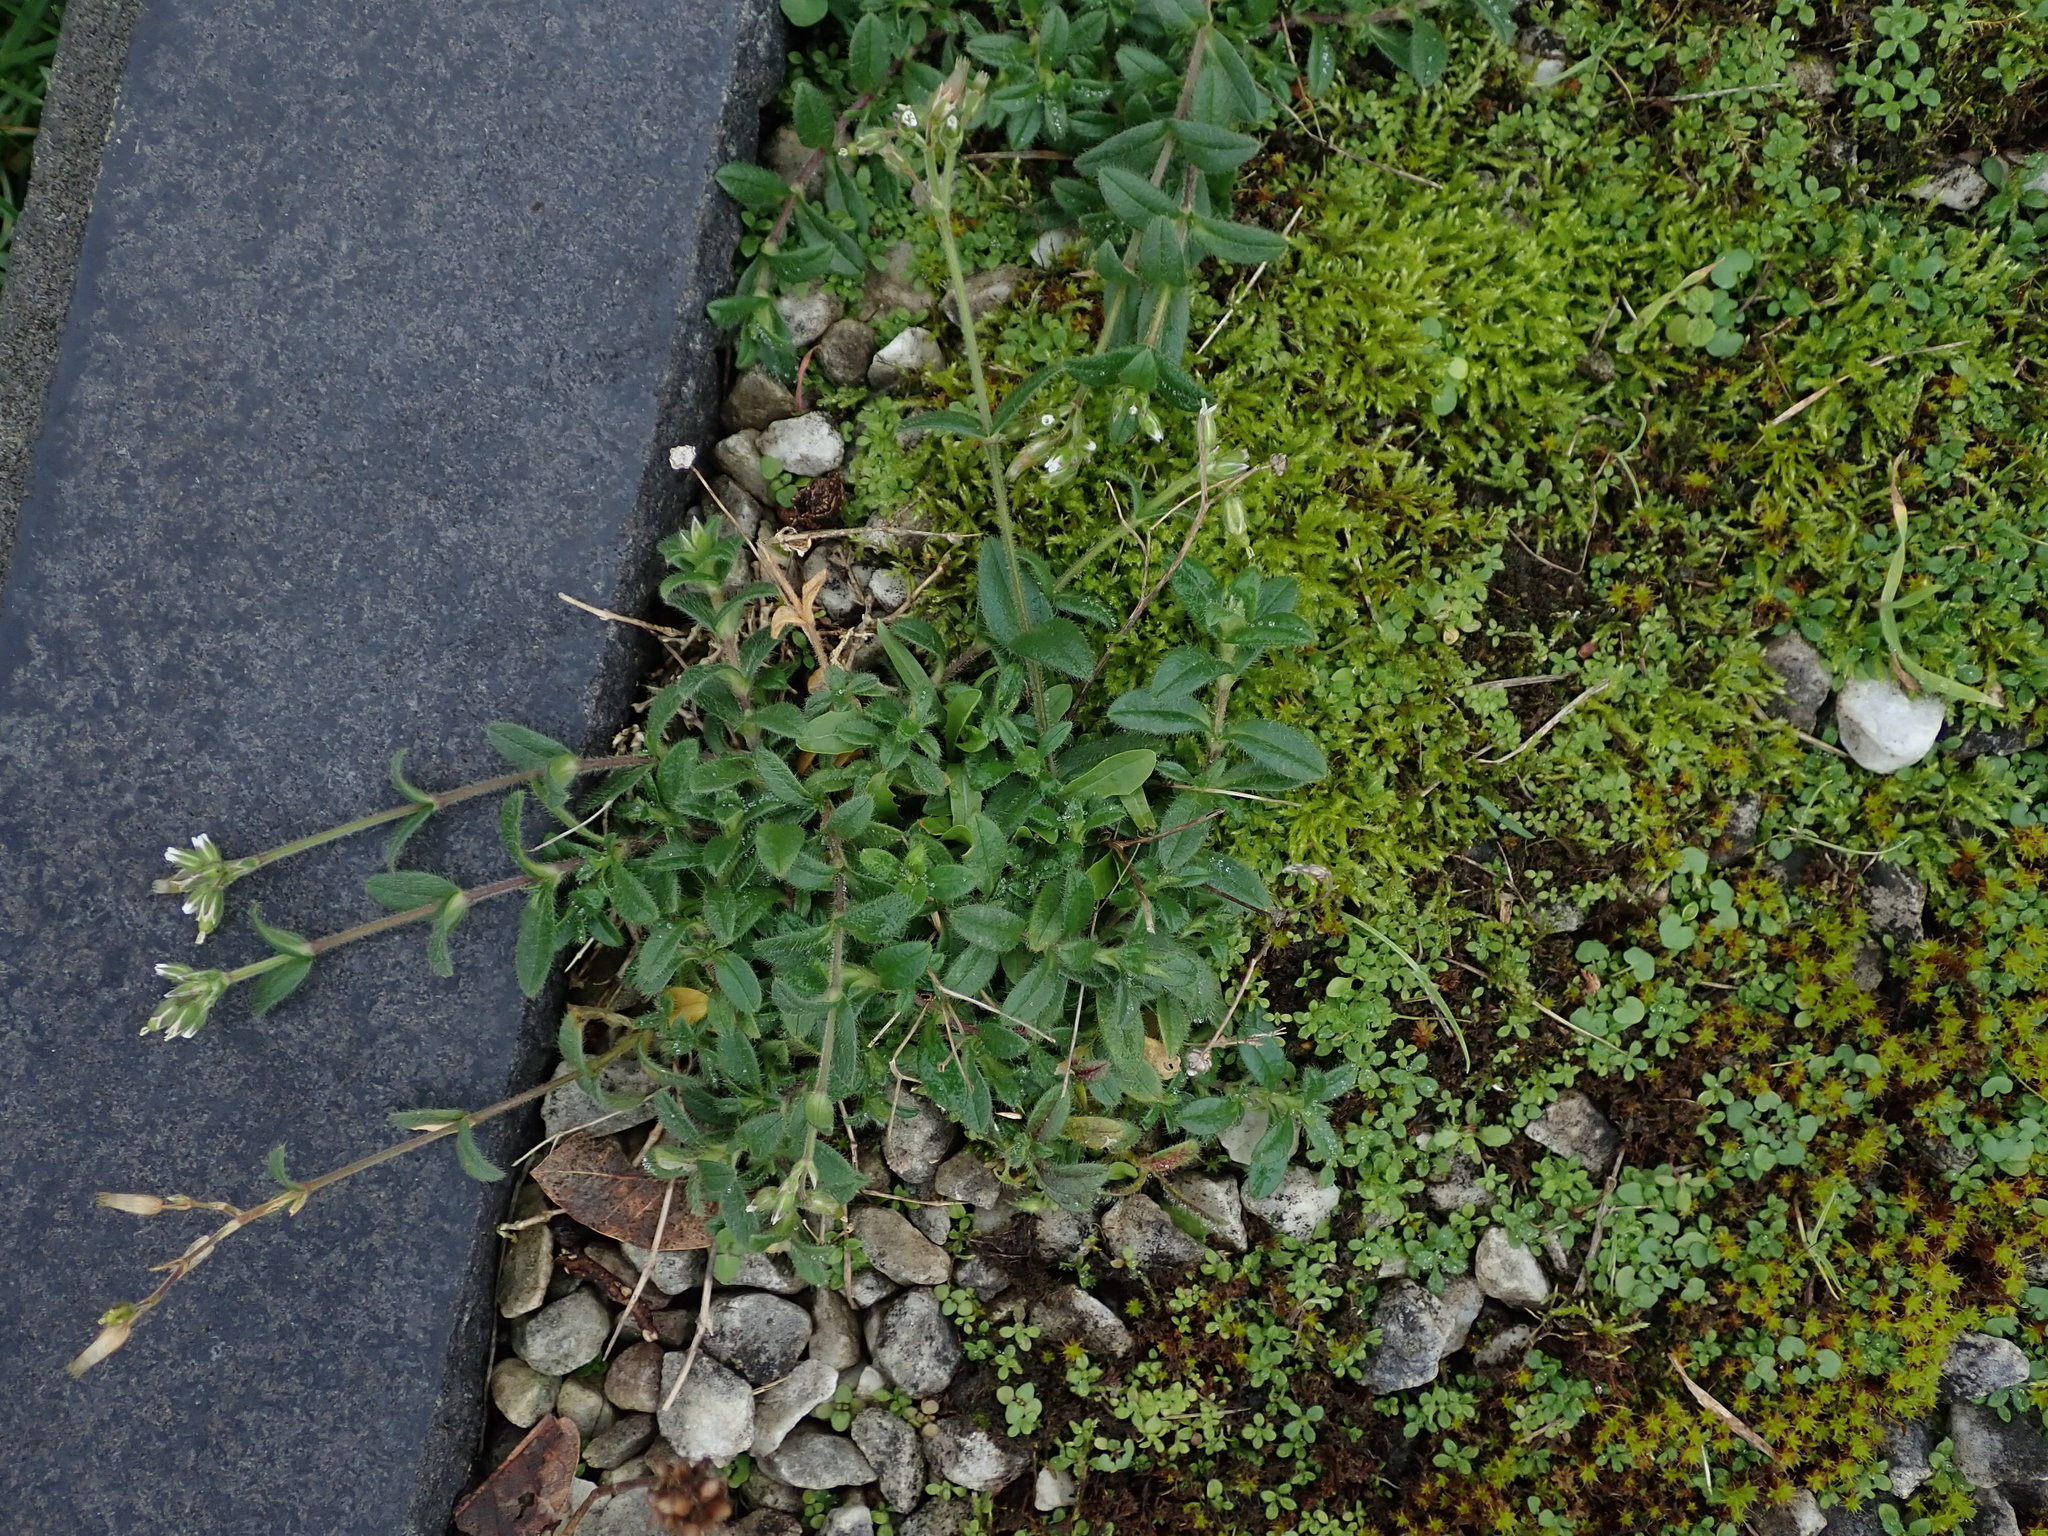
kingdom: Plantae
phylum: Tracheophyta
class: Magnoliopsida
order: Caryophyllales
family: Caryophyllaceae
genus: Cerastium
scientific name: Cerastium fontanum
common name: Common mouse-ear
